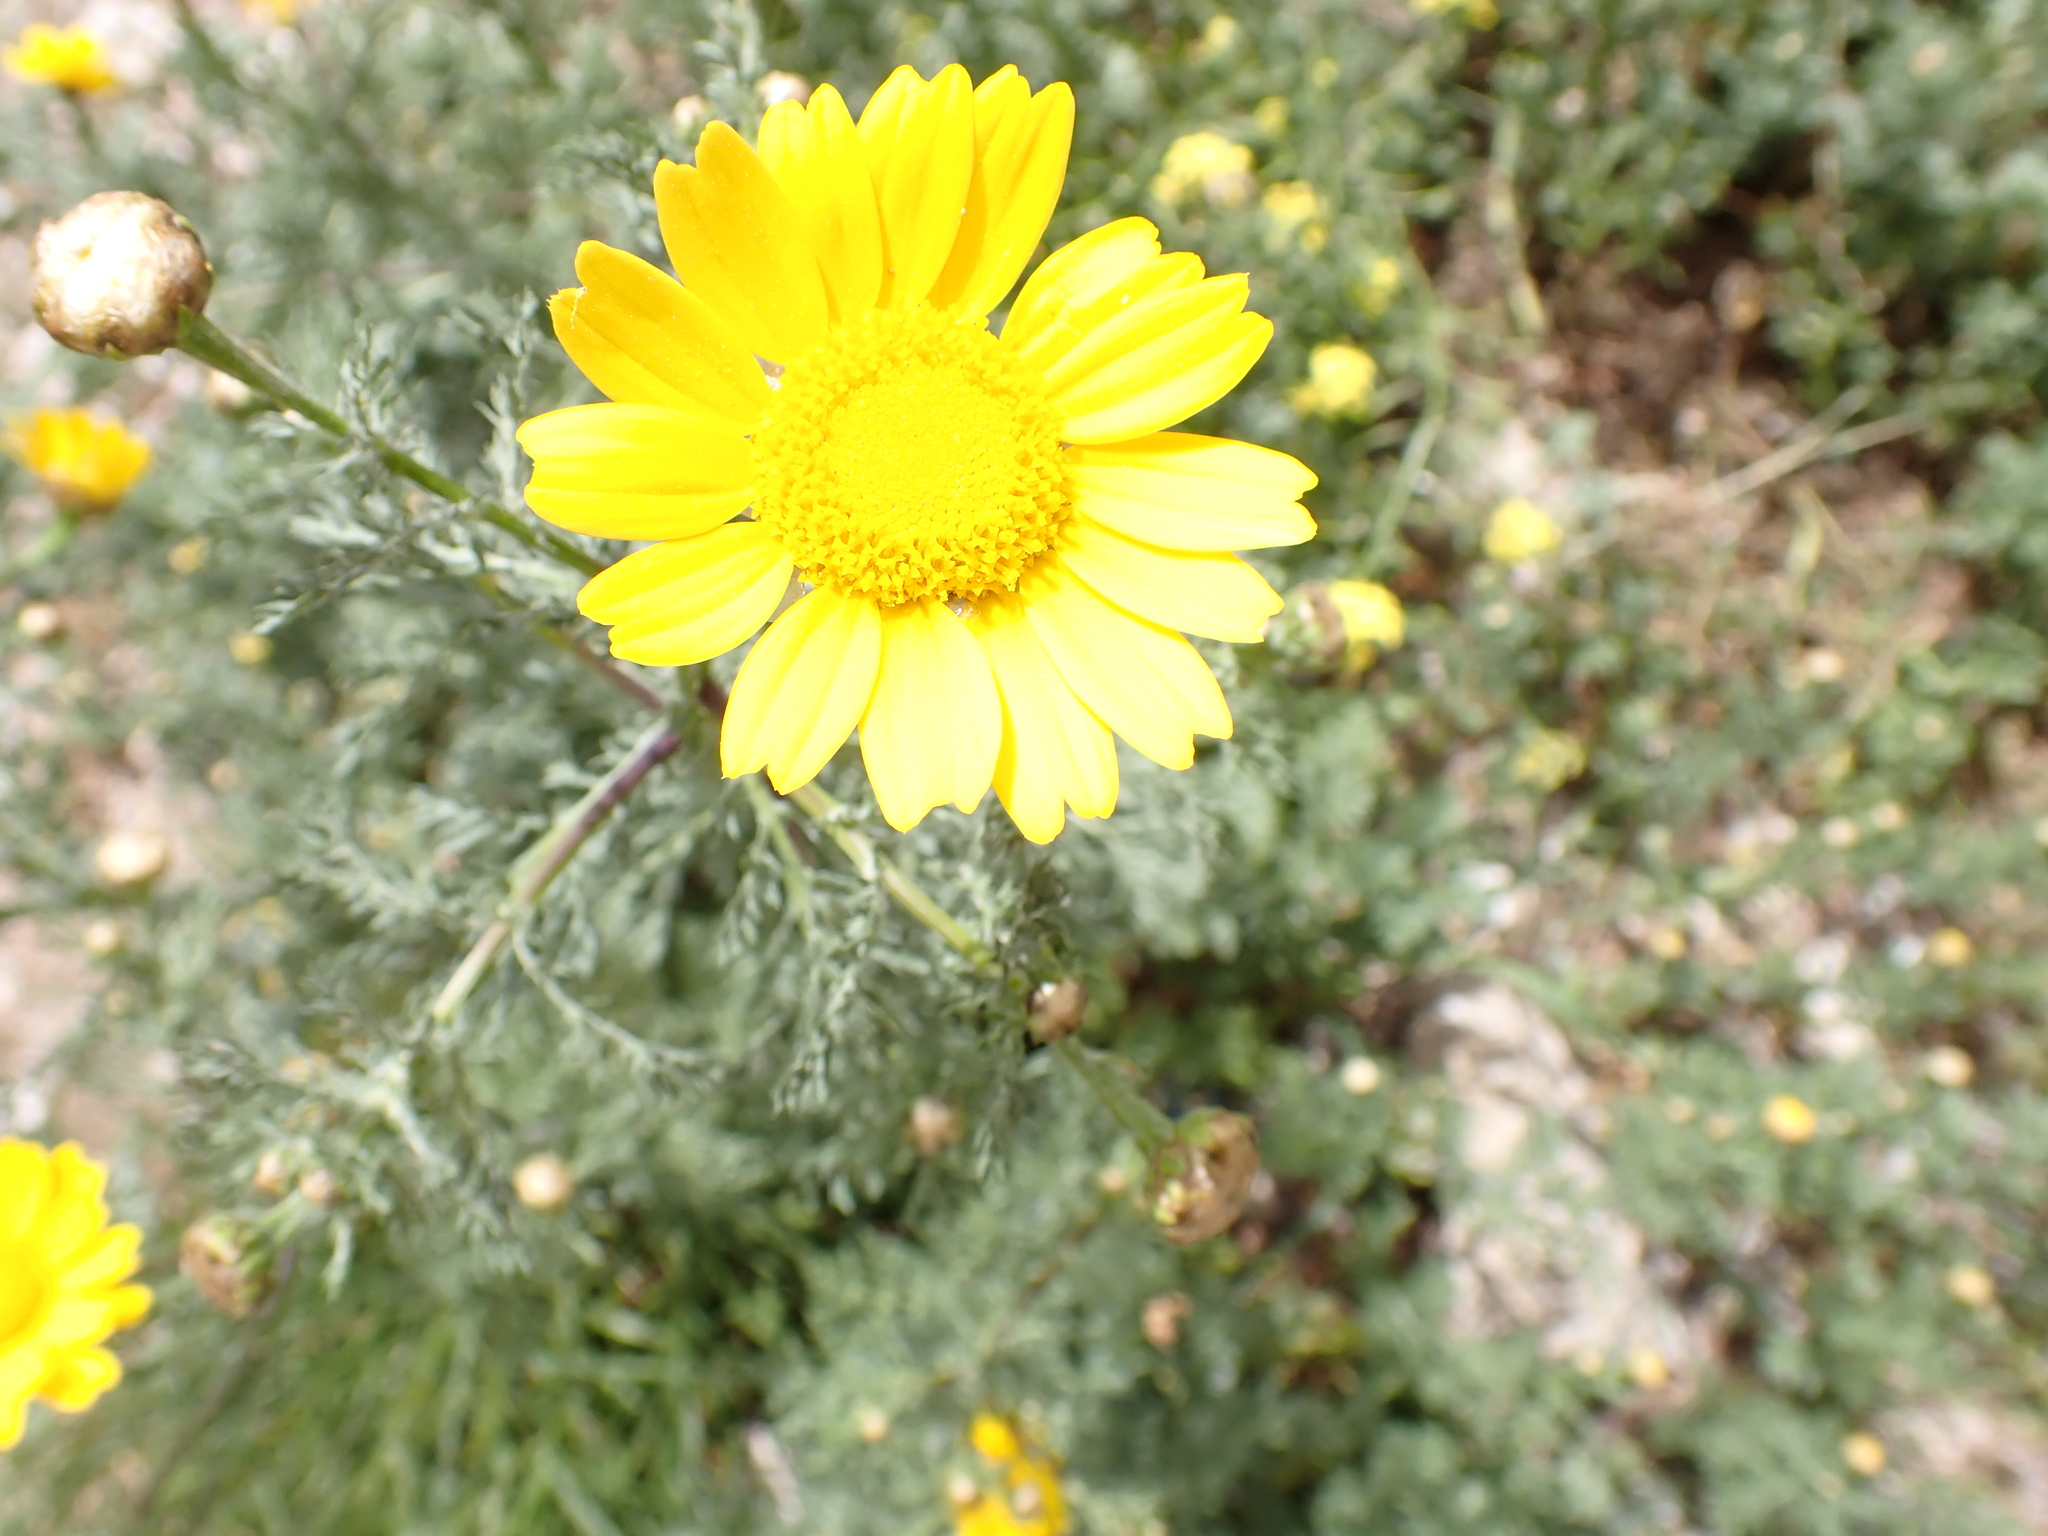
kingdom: Plantae
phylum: Tracheophyta
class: Magnoliopsida
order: Asterales
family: Asteraceae
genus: Glebionis
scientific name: Glebionis coronaria
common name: Crowndaisy
